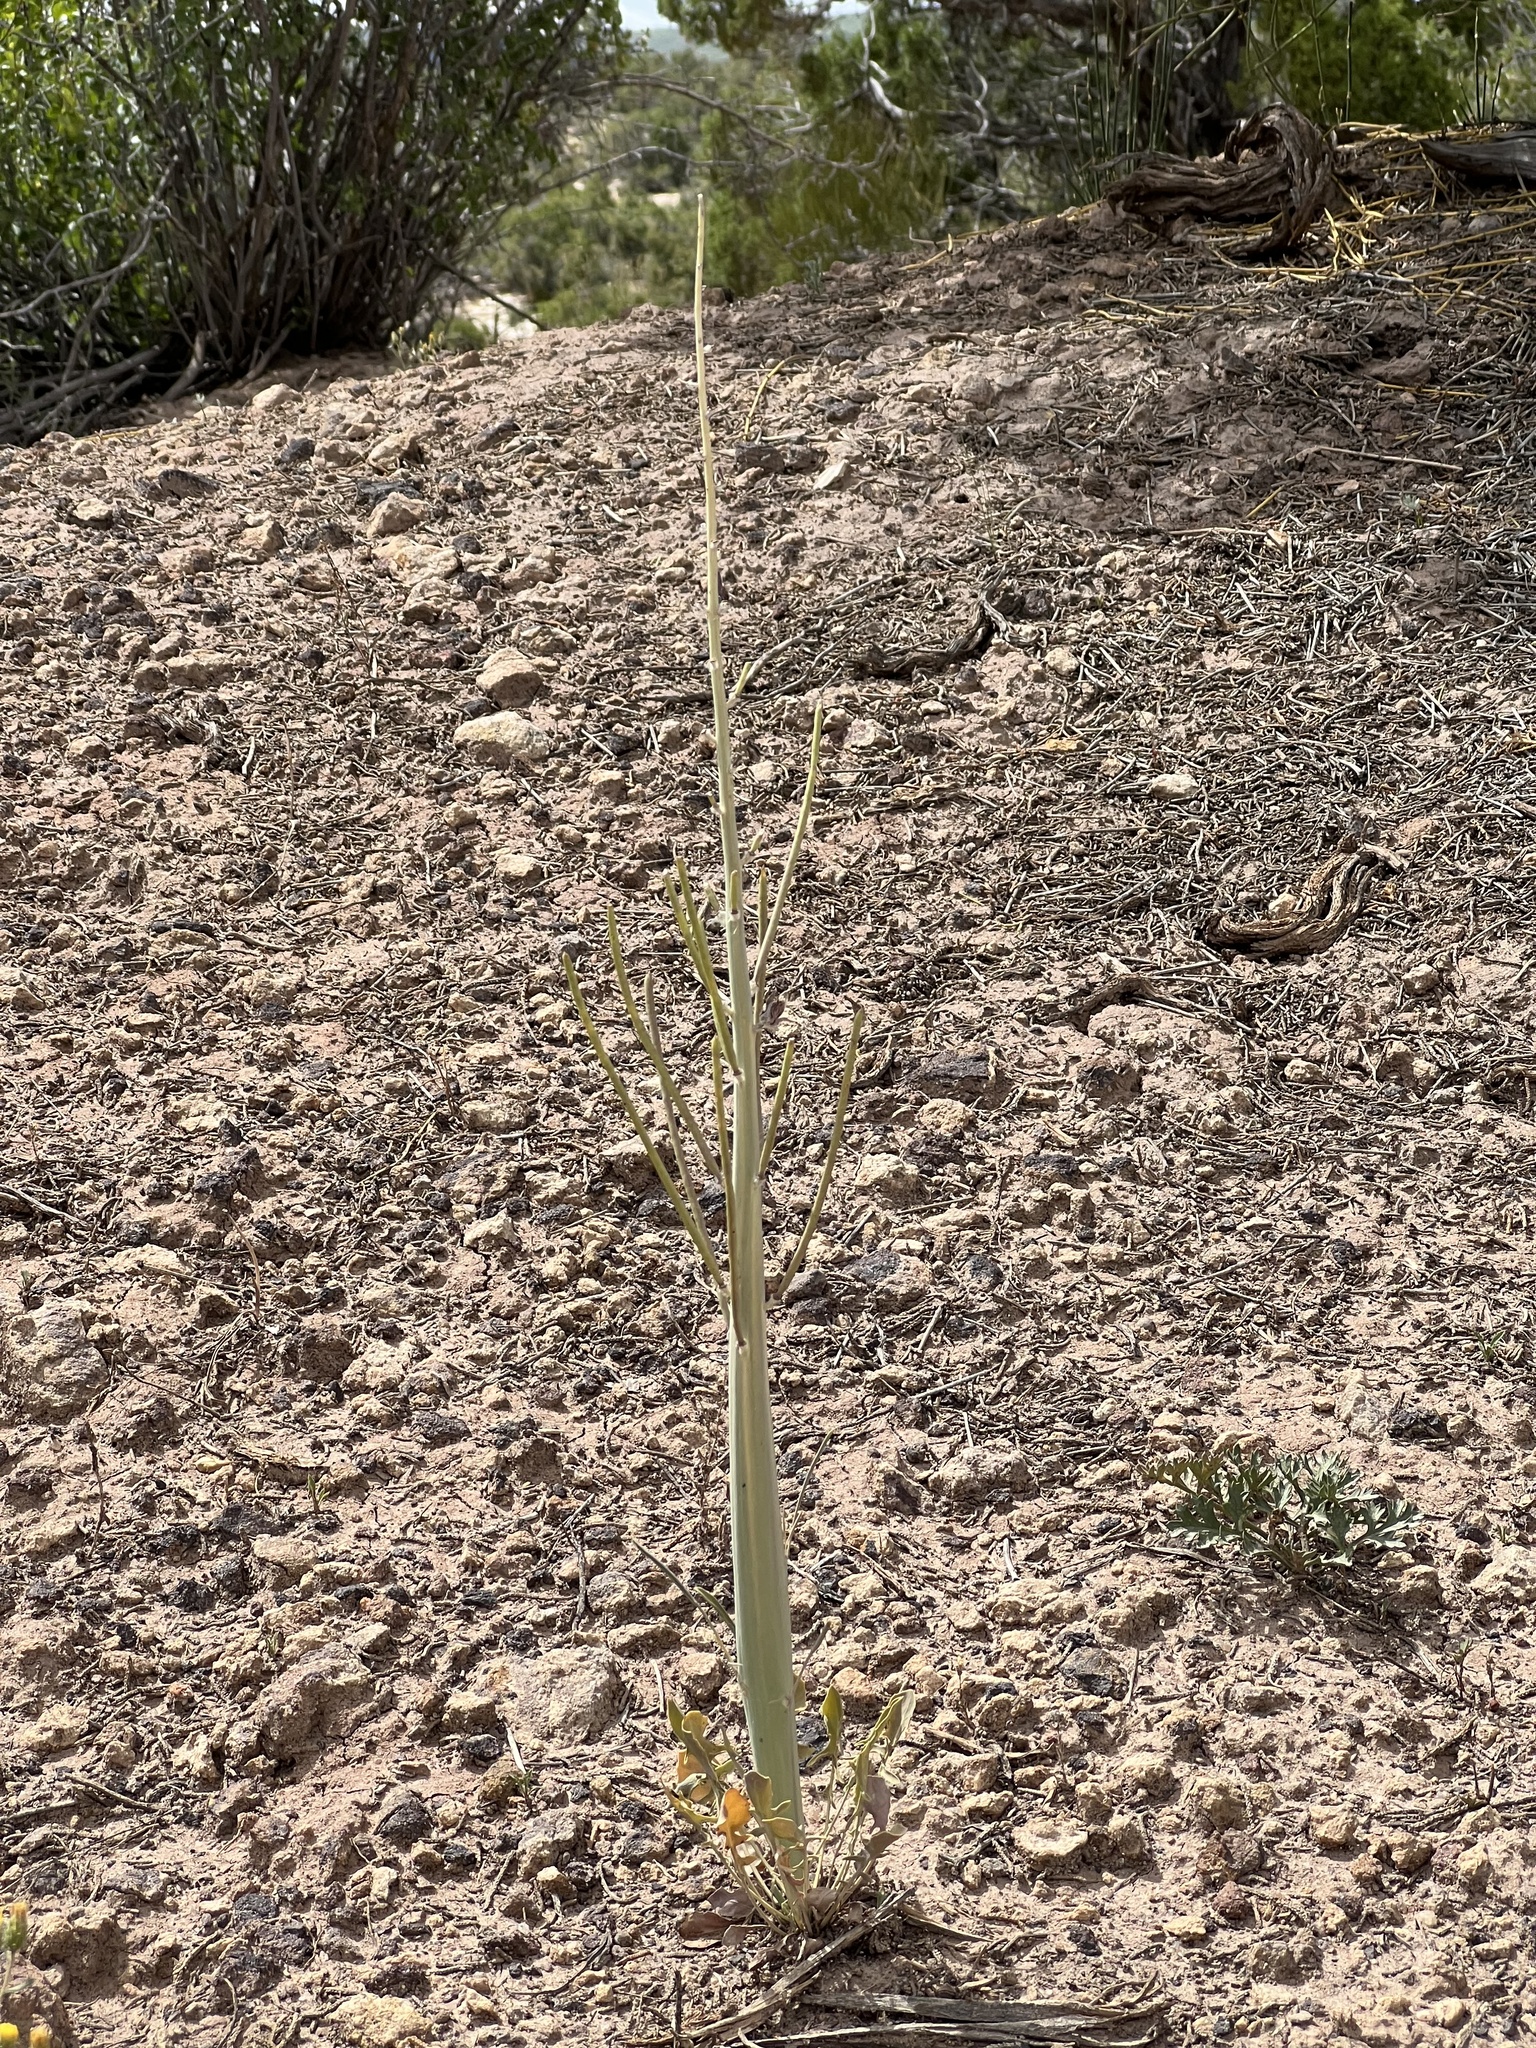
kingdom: Plantae
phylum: Tracheophyta
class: Magnoliopsida
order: Brassicales
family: Brassicaceae
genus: Streptanthus
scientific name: Streptanthus crassicaulis
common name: Thick-stem wild cabbage
